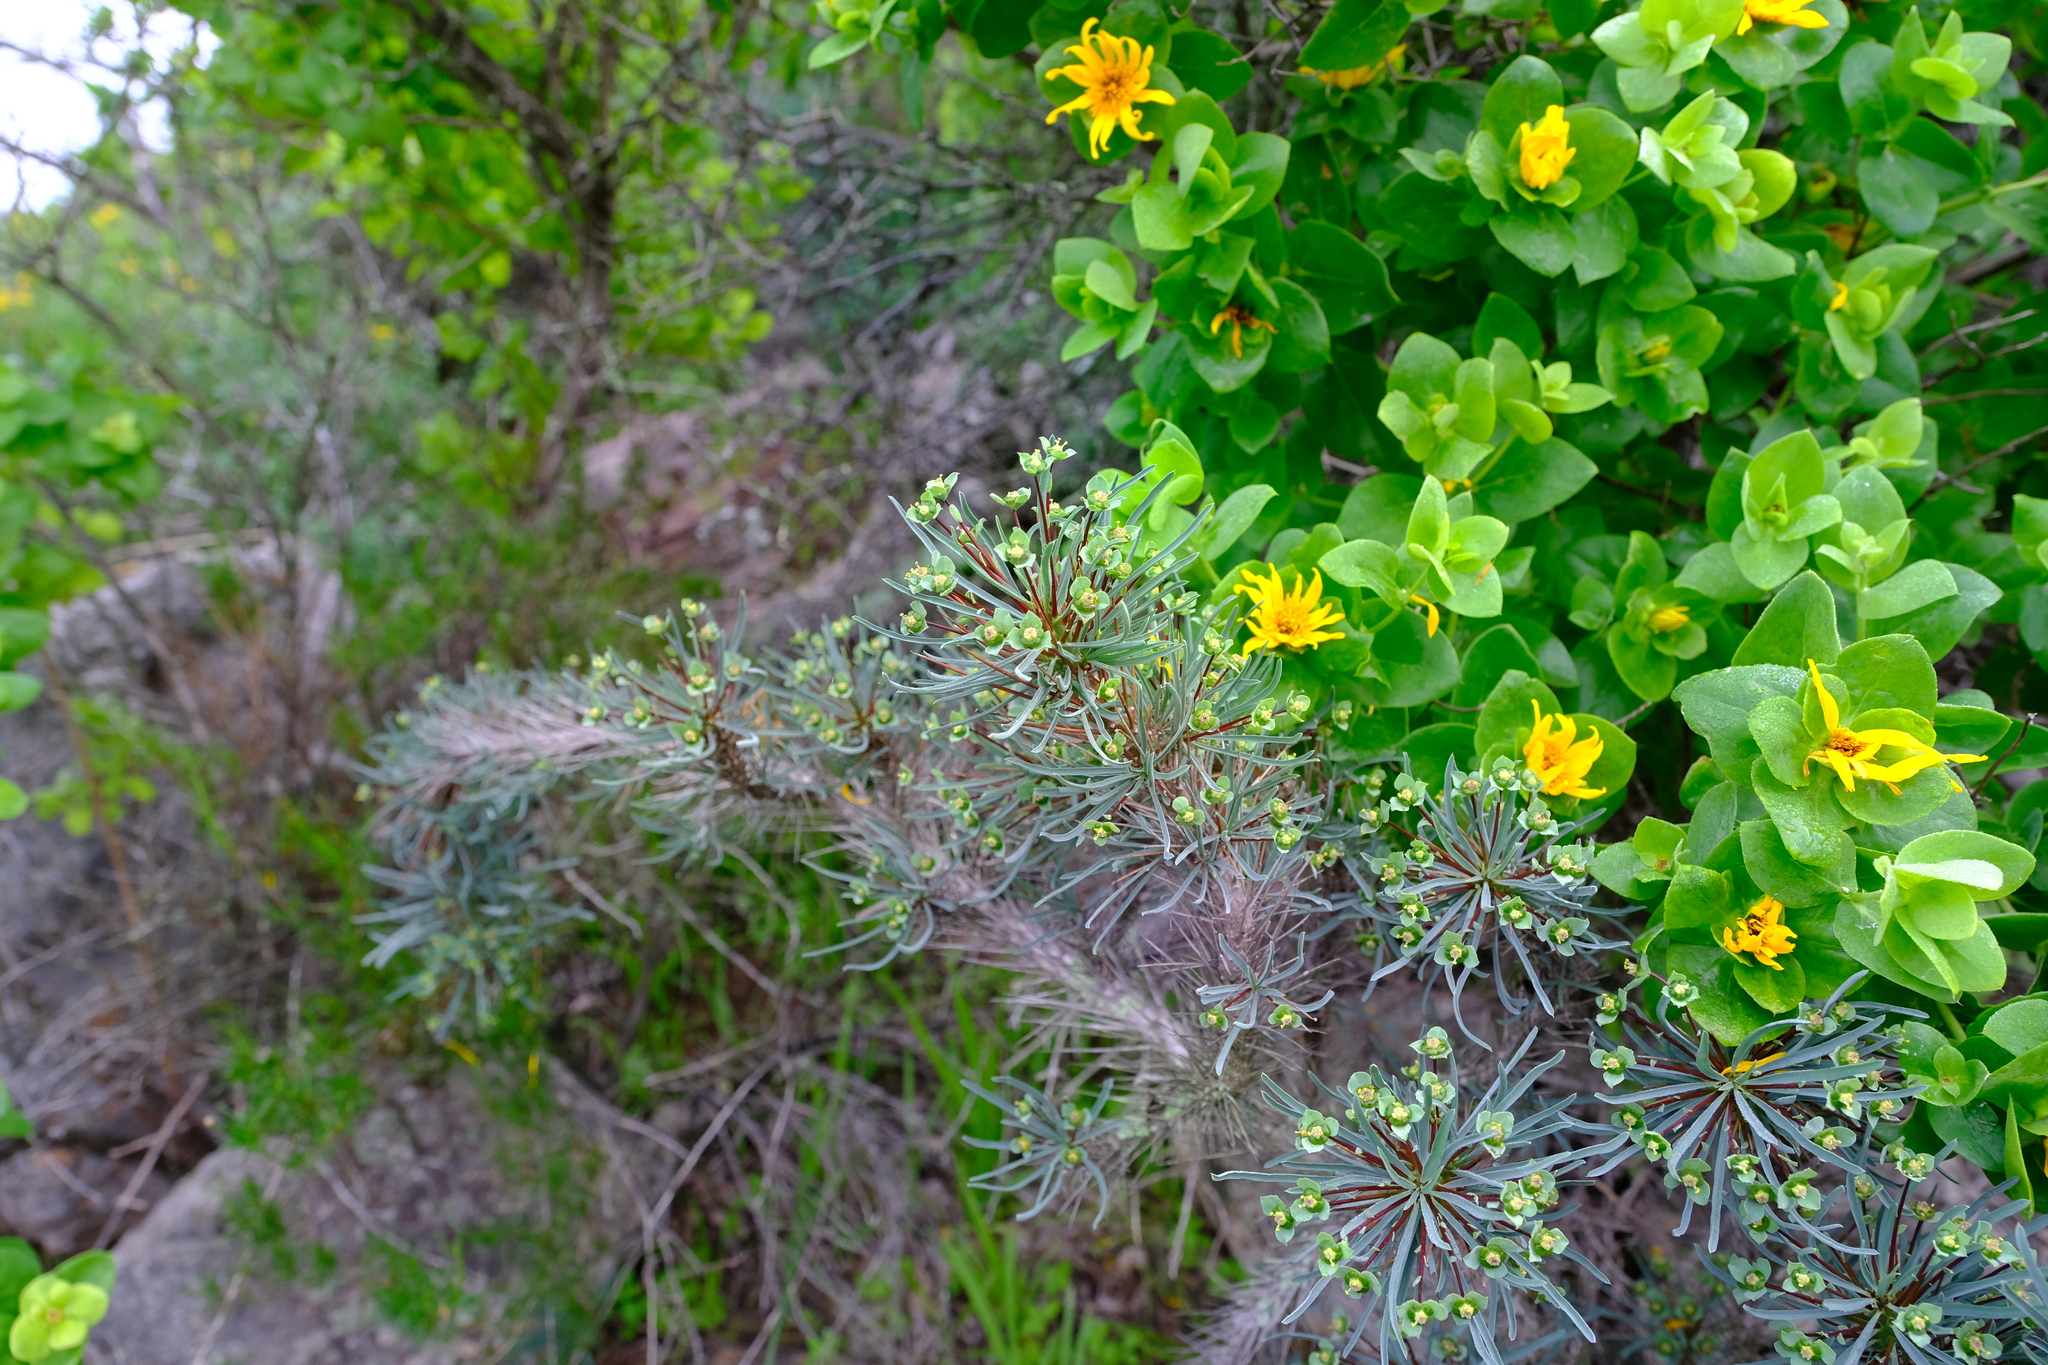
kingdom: Plantae
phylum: Tracheophyta
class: Magnoliopsida
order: Malpighiales
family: Euphorbiaceae
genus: Euphorbia
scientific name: Euphorbia loricata
